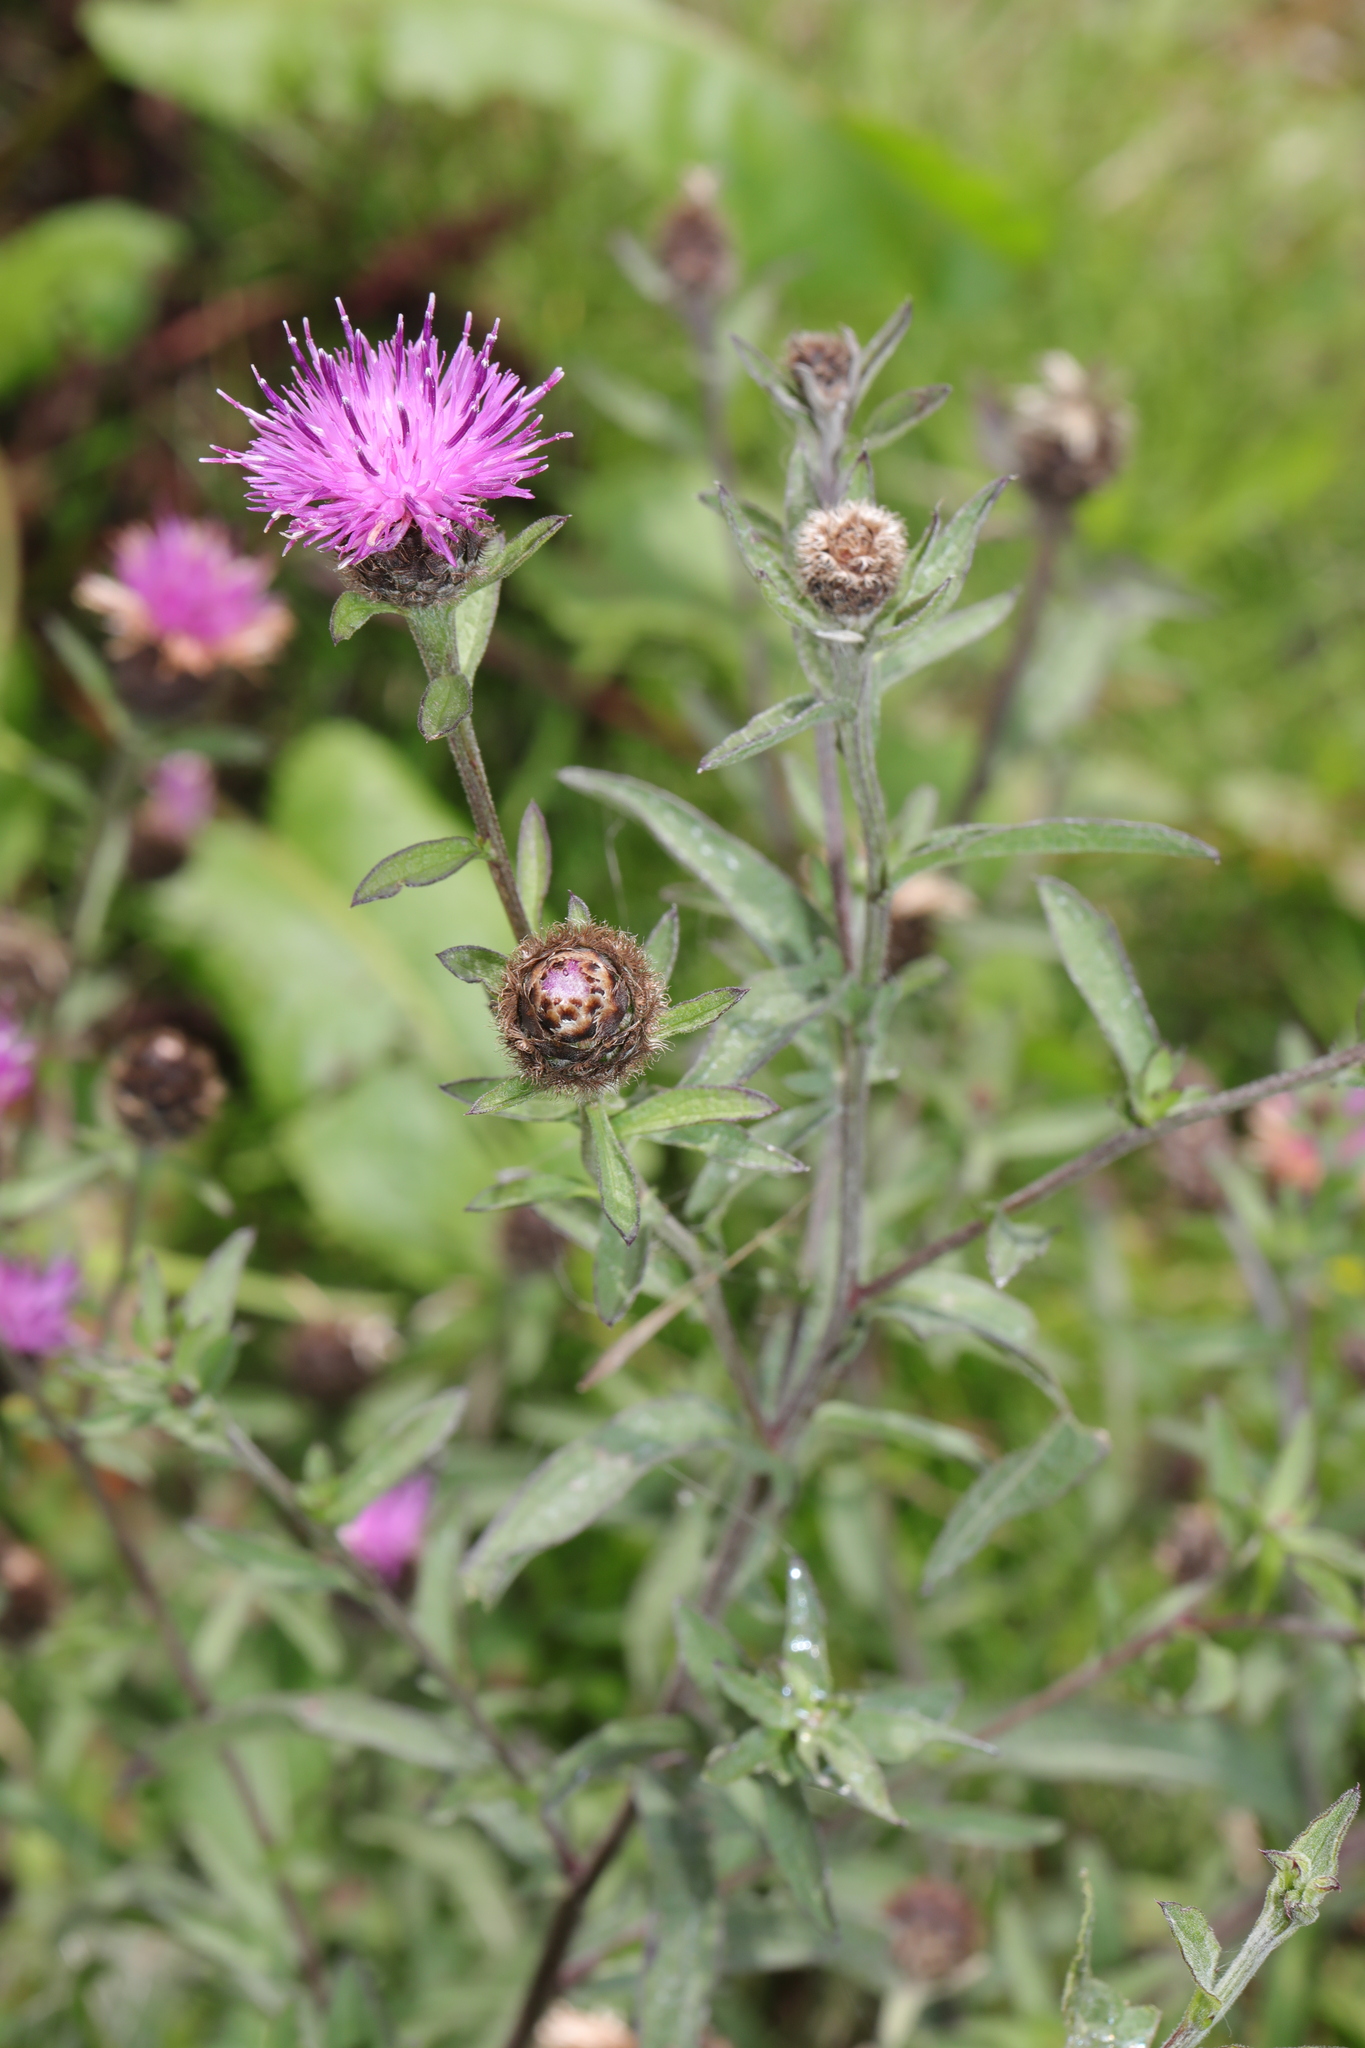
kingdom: Plantae
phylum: Tracheophyta
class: Magnoliopsida
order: Asterales
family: Asteraceae
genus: Centaurea
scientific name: Centaurea nigra
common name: Lesser knapweed
